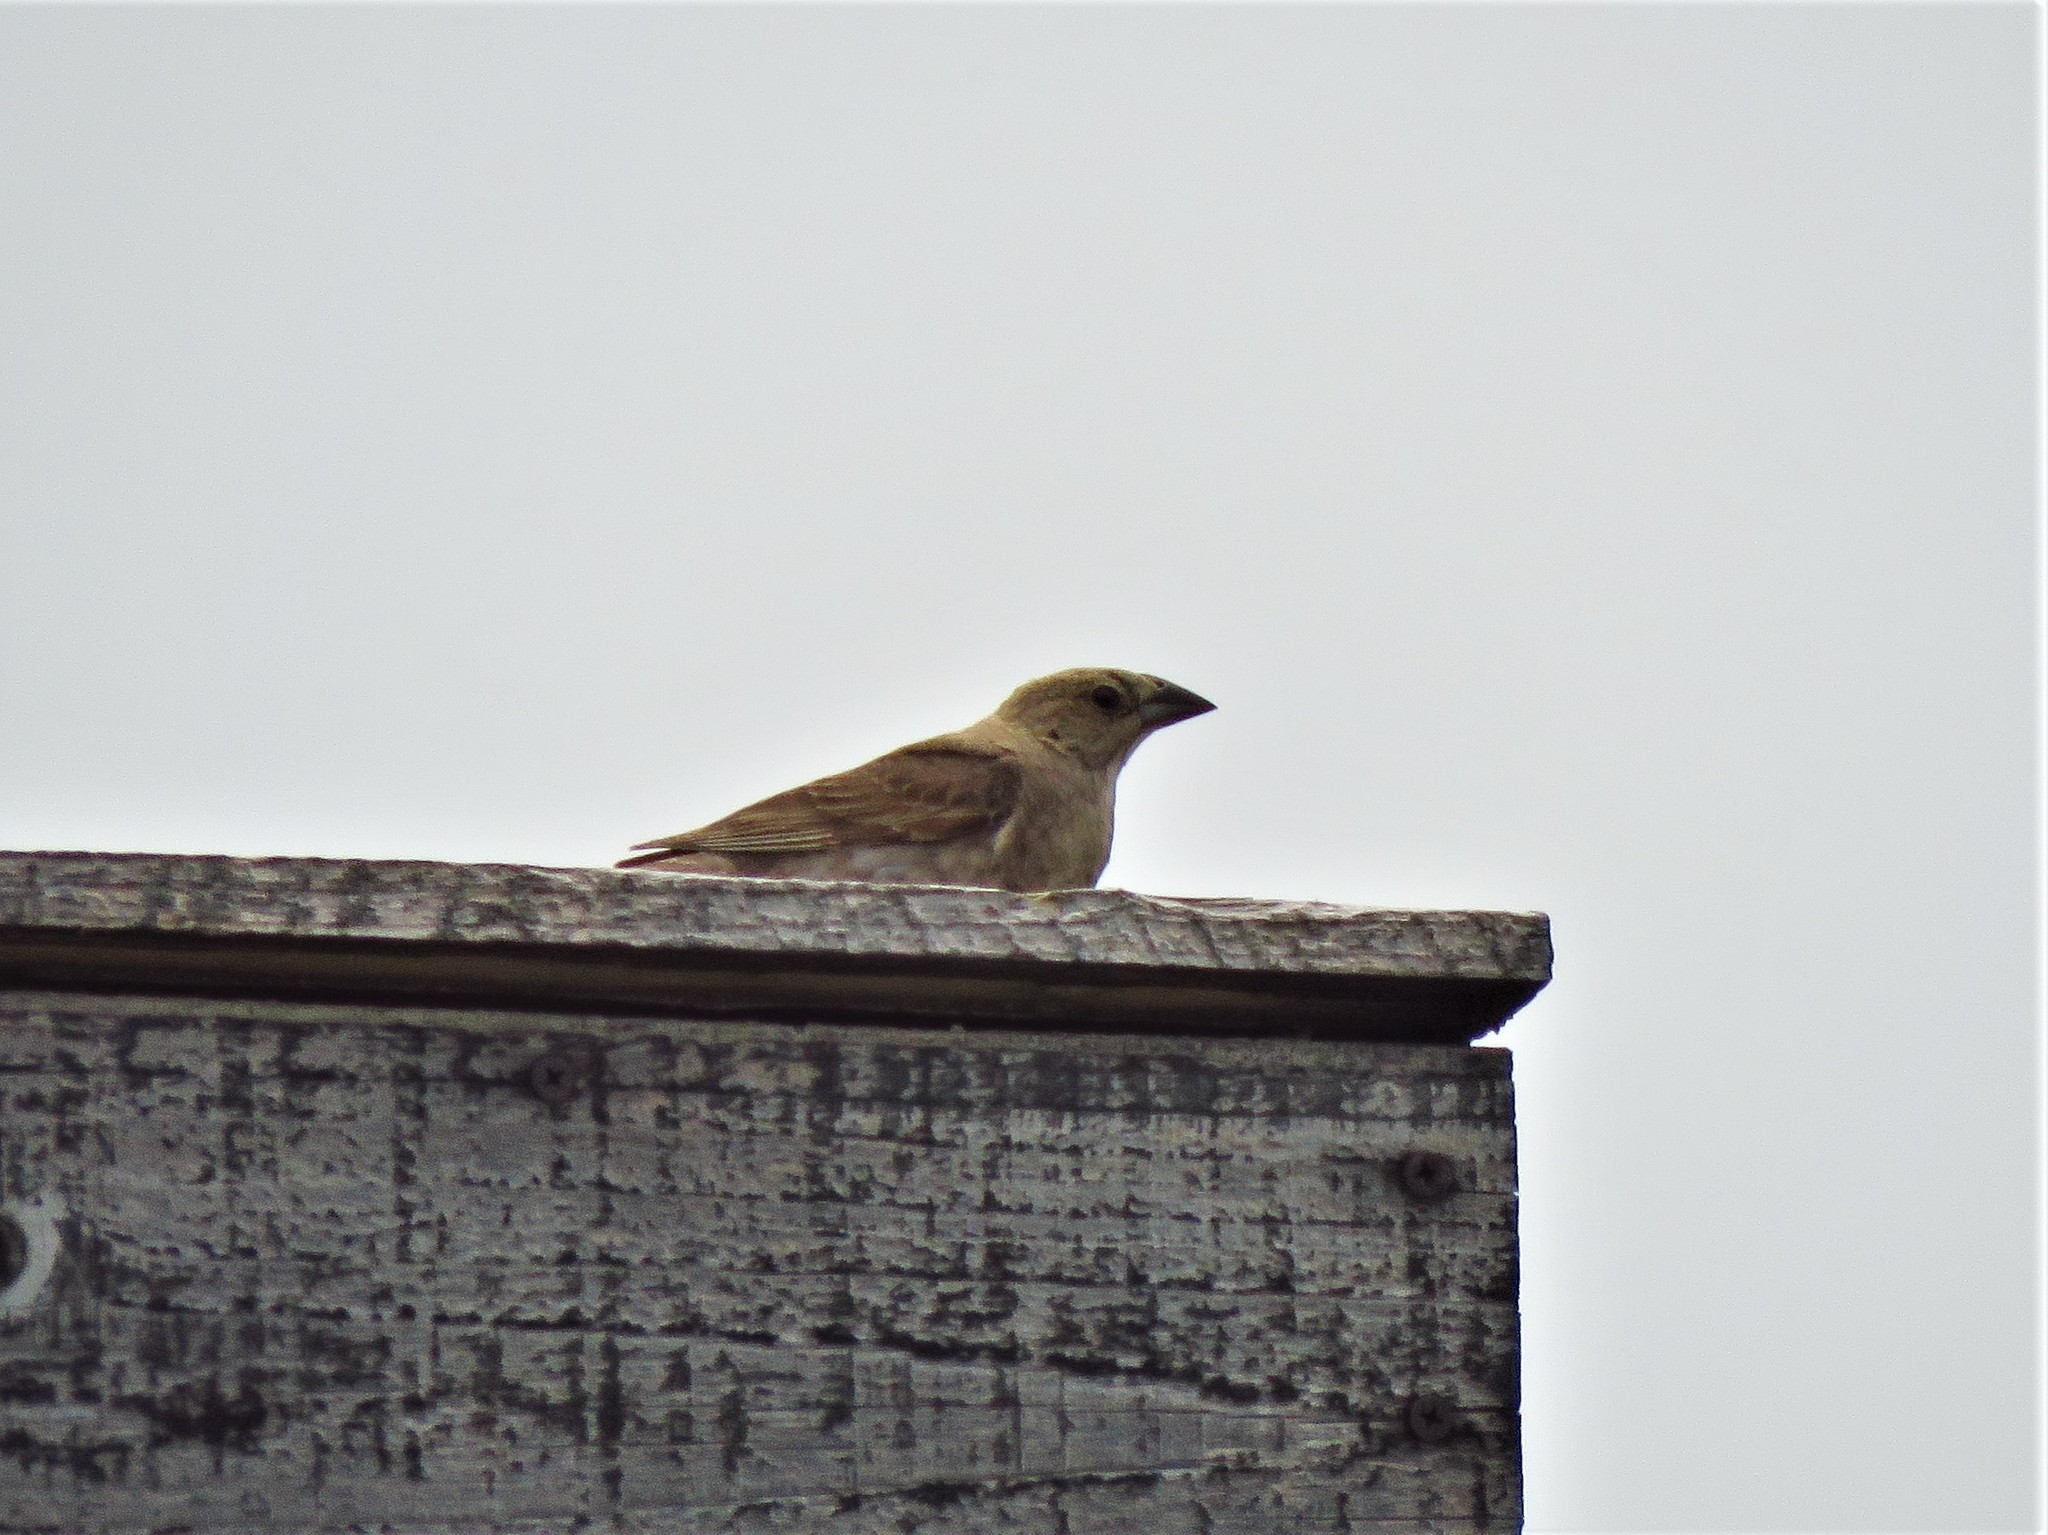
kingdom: Animalia
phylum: Chordata
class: Aves
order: Passeriformes
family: Icteridae
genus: Molothrus
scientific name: Molothrus ater
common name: Brown-headed cowbird
